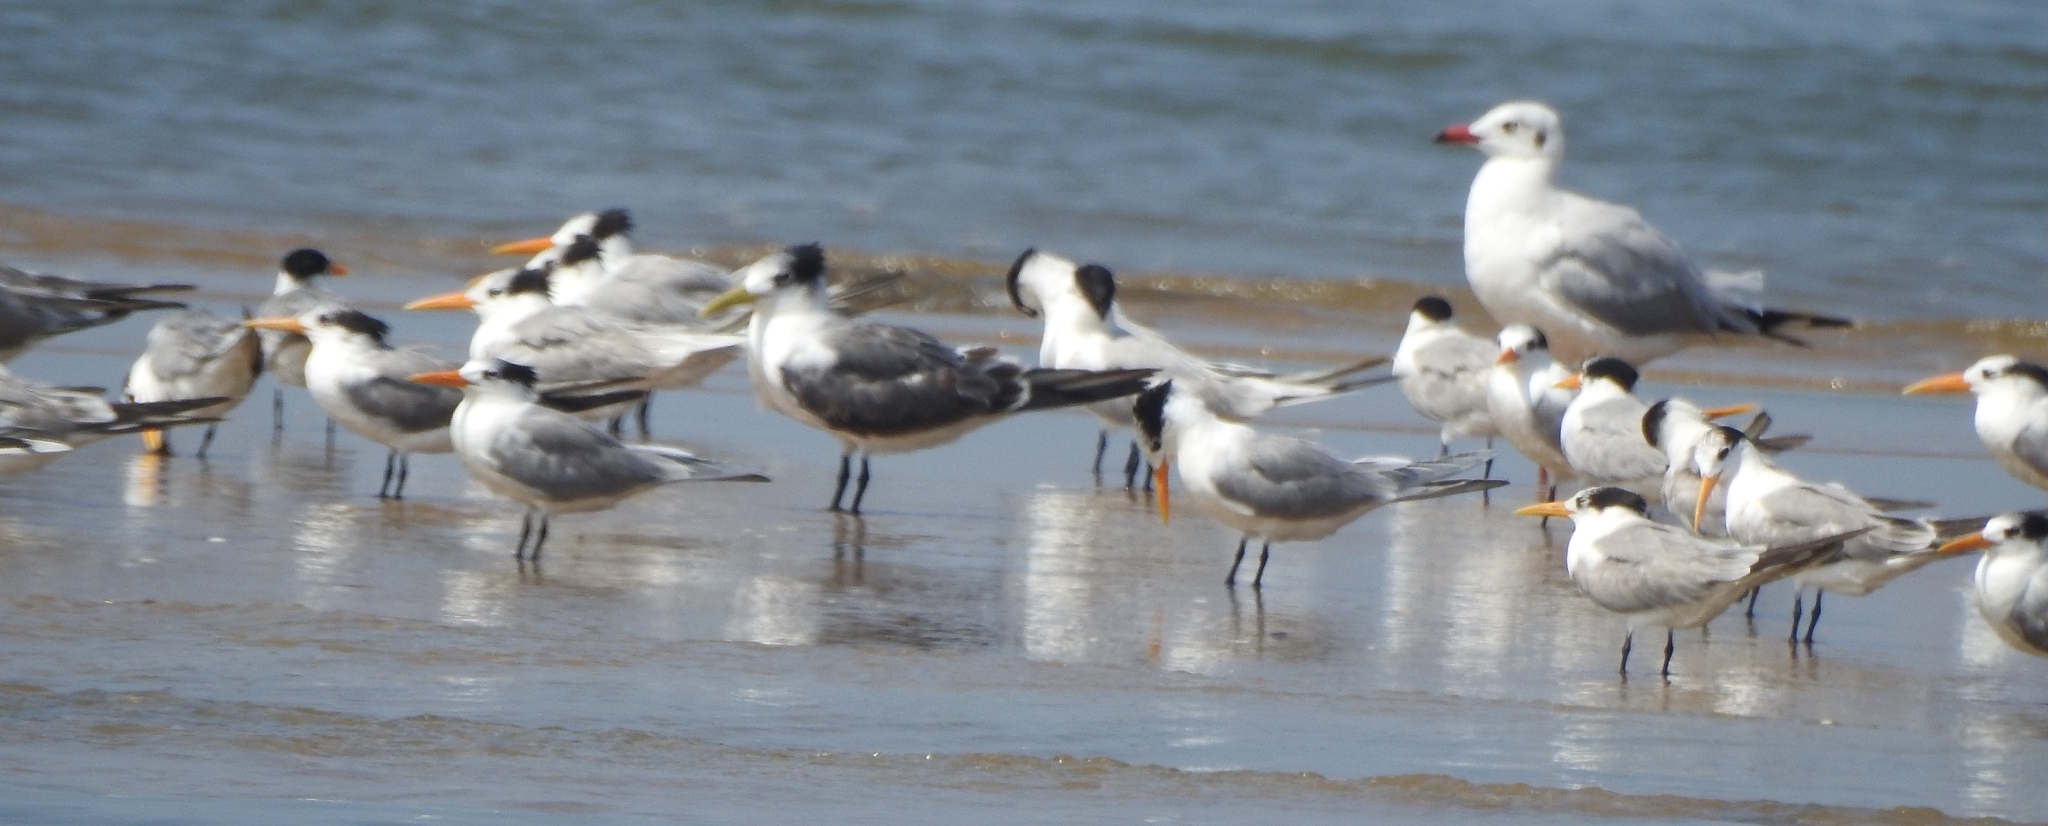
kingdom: Animalia
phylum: Chordata
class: Aves
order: Charadriiformes
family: Laridae
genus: Thalasseus
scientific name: Thalasseus bergii
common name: Greater crested tern
